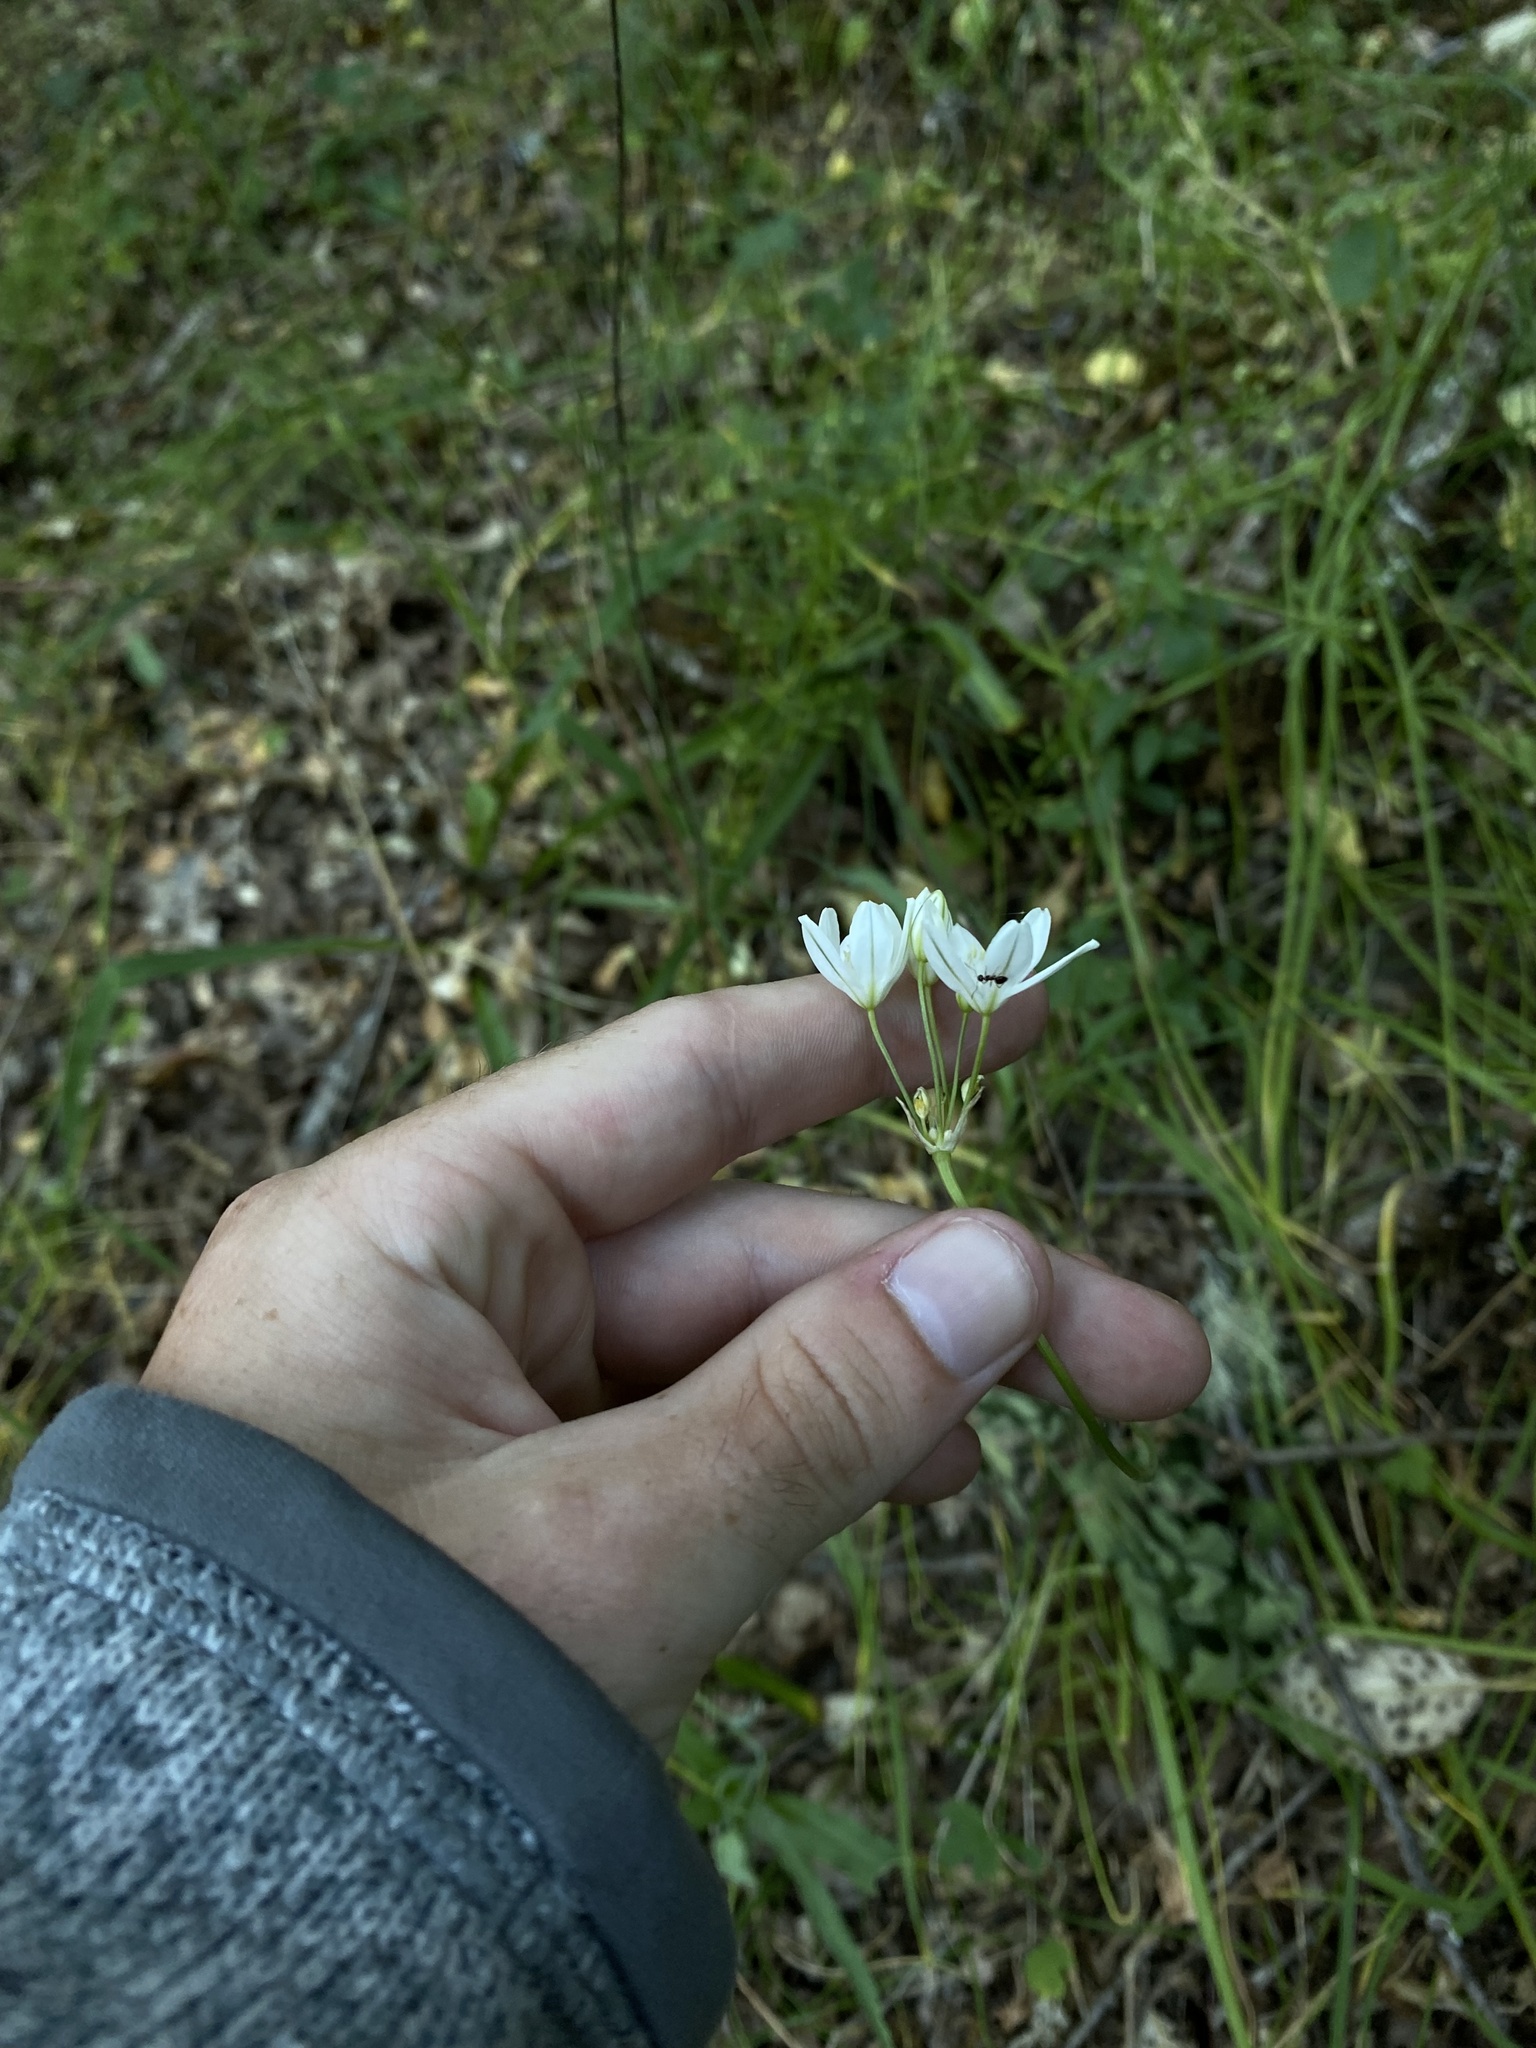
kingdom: Plantae
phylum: Tracheophyta
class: Liliopsida
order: Asparagales
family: Asparagaceae
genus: Triteleia
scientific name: Triteleia hyacinthina
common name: White brodiaea
